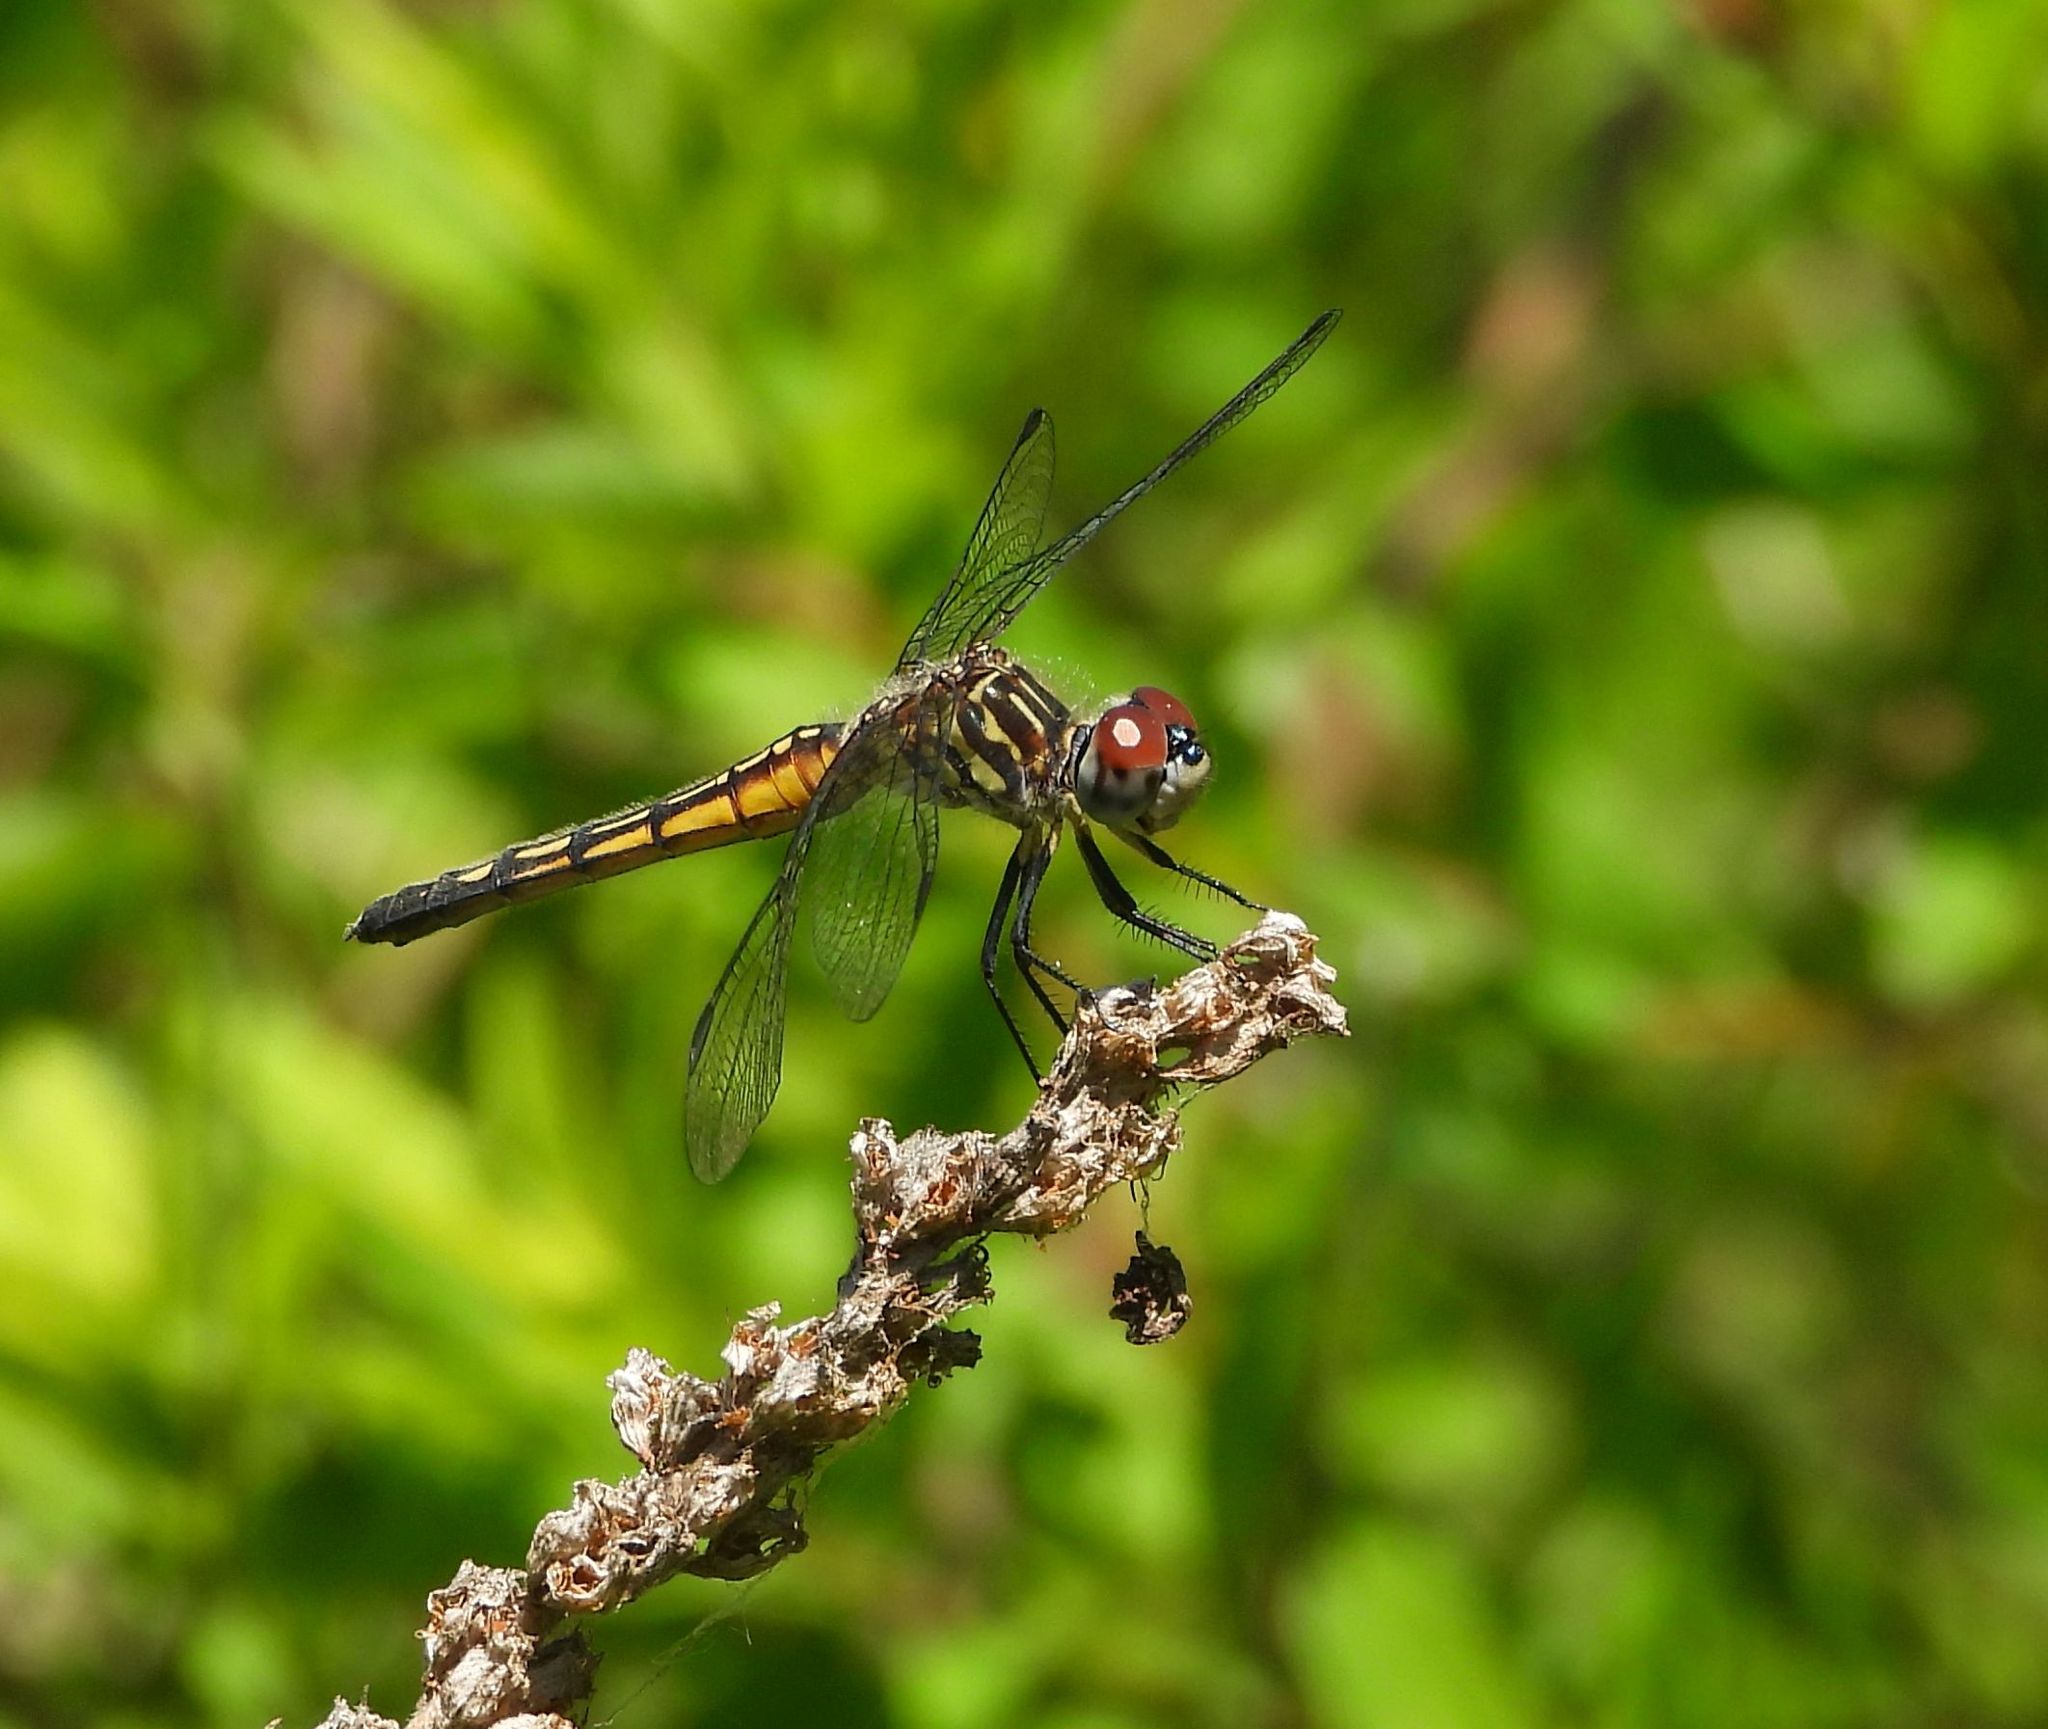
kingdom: Animalia
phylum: Arthropoda
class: Insecta
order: Odonata
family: Libellulidae
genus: Pachydiplax
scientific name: Pachydiplax longipennis
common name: Blue dasher
